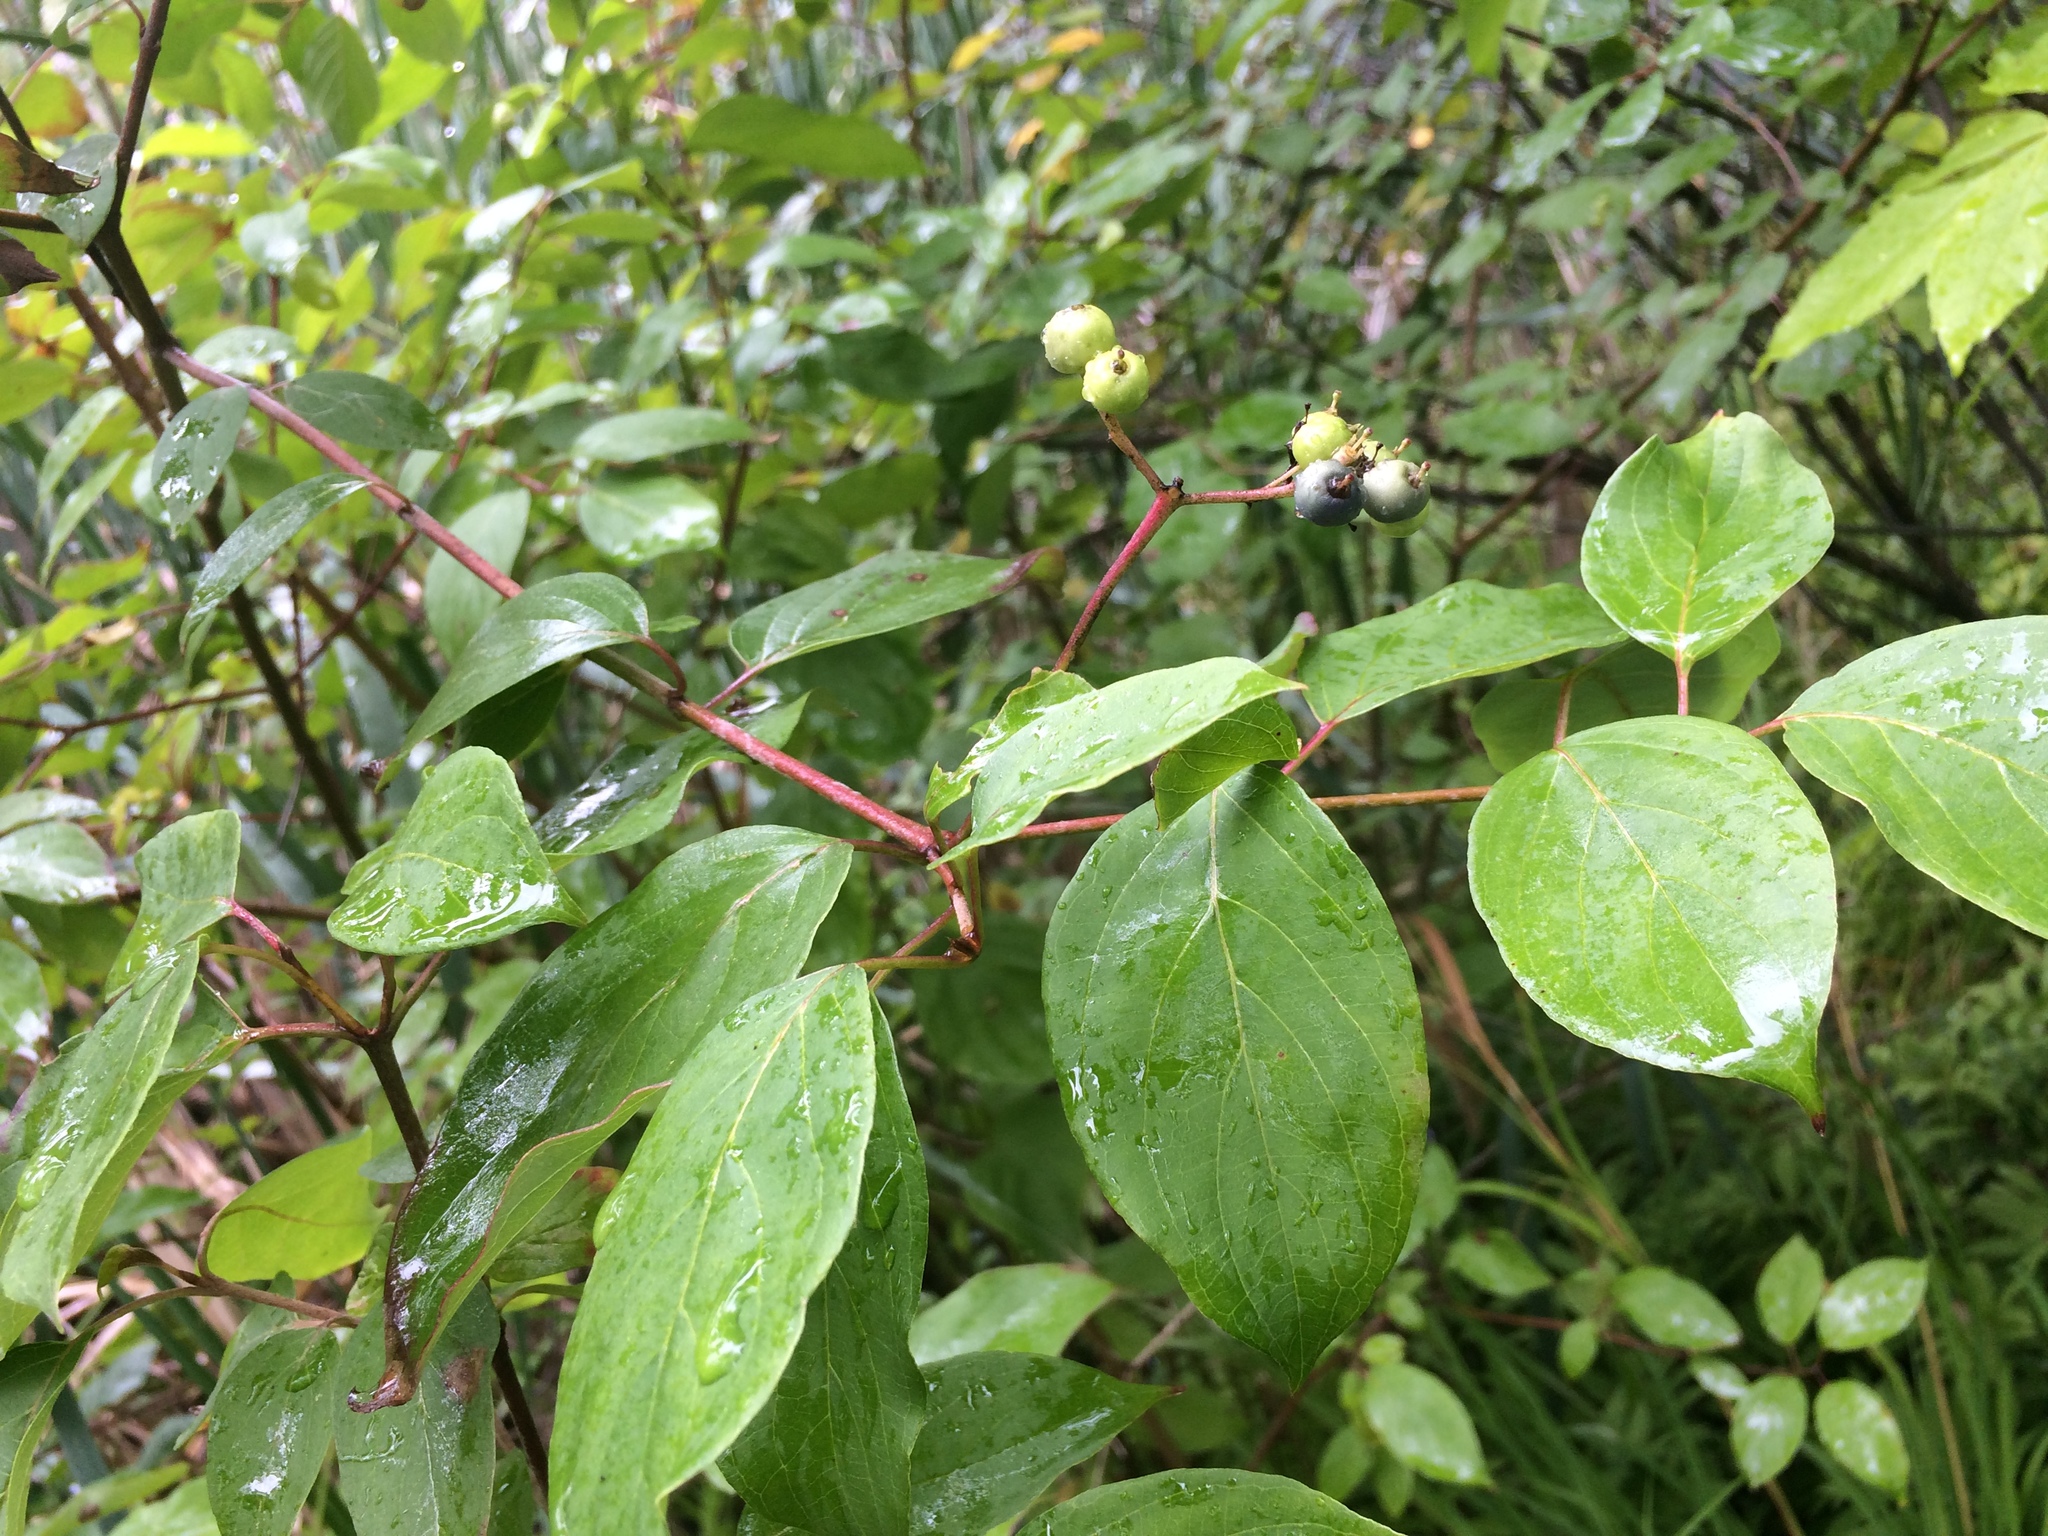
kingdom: Plantae
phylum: Tracheophyta
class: Magnoliopsida
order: Cornales
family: Cornaceae
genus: Cornus
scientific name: Cornus amomum
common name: Silky dogwood
